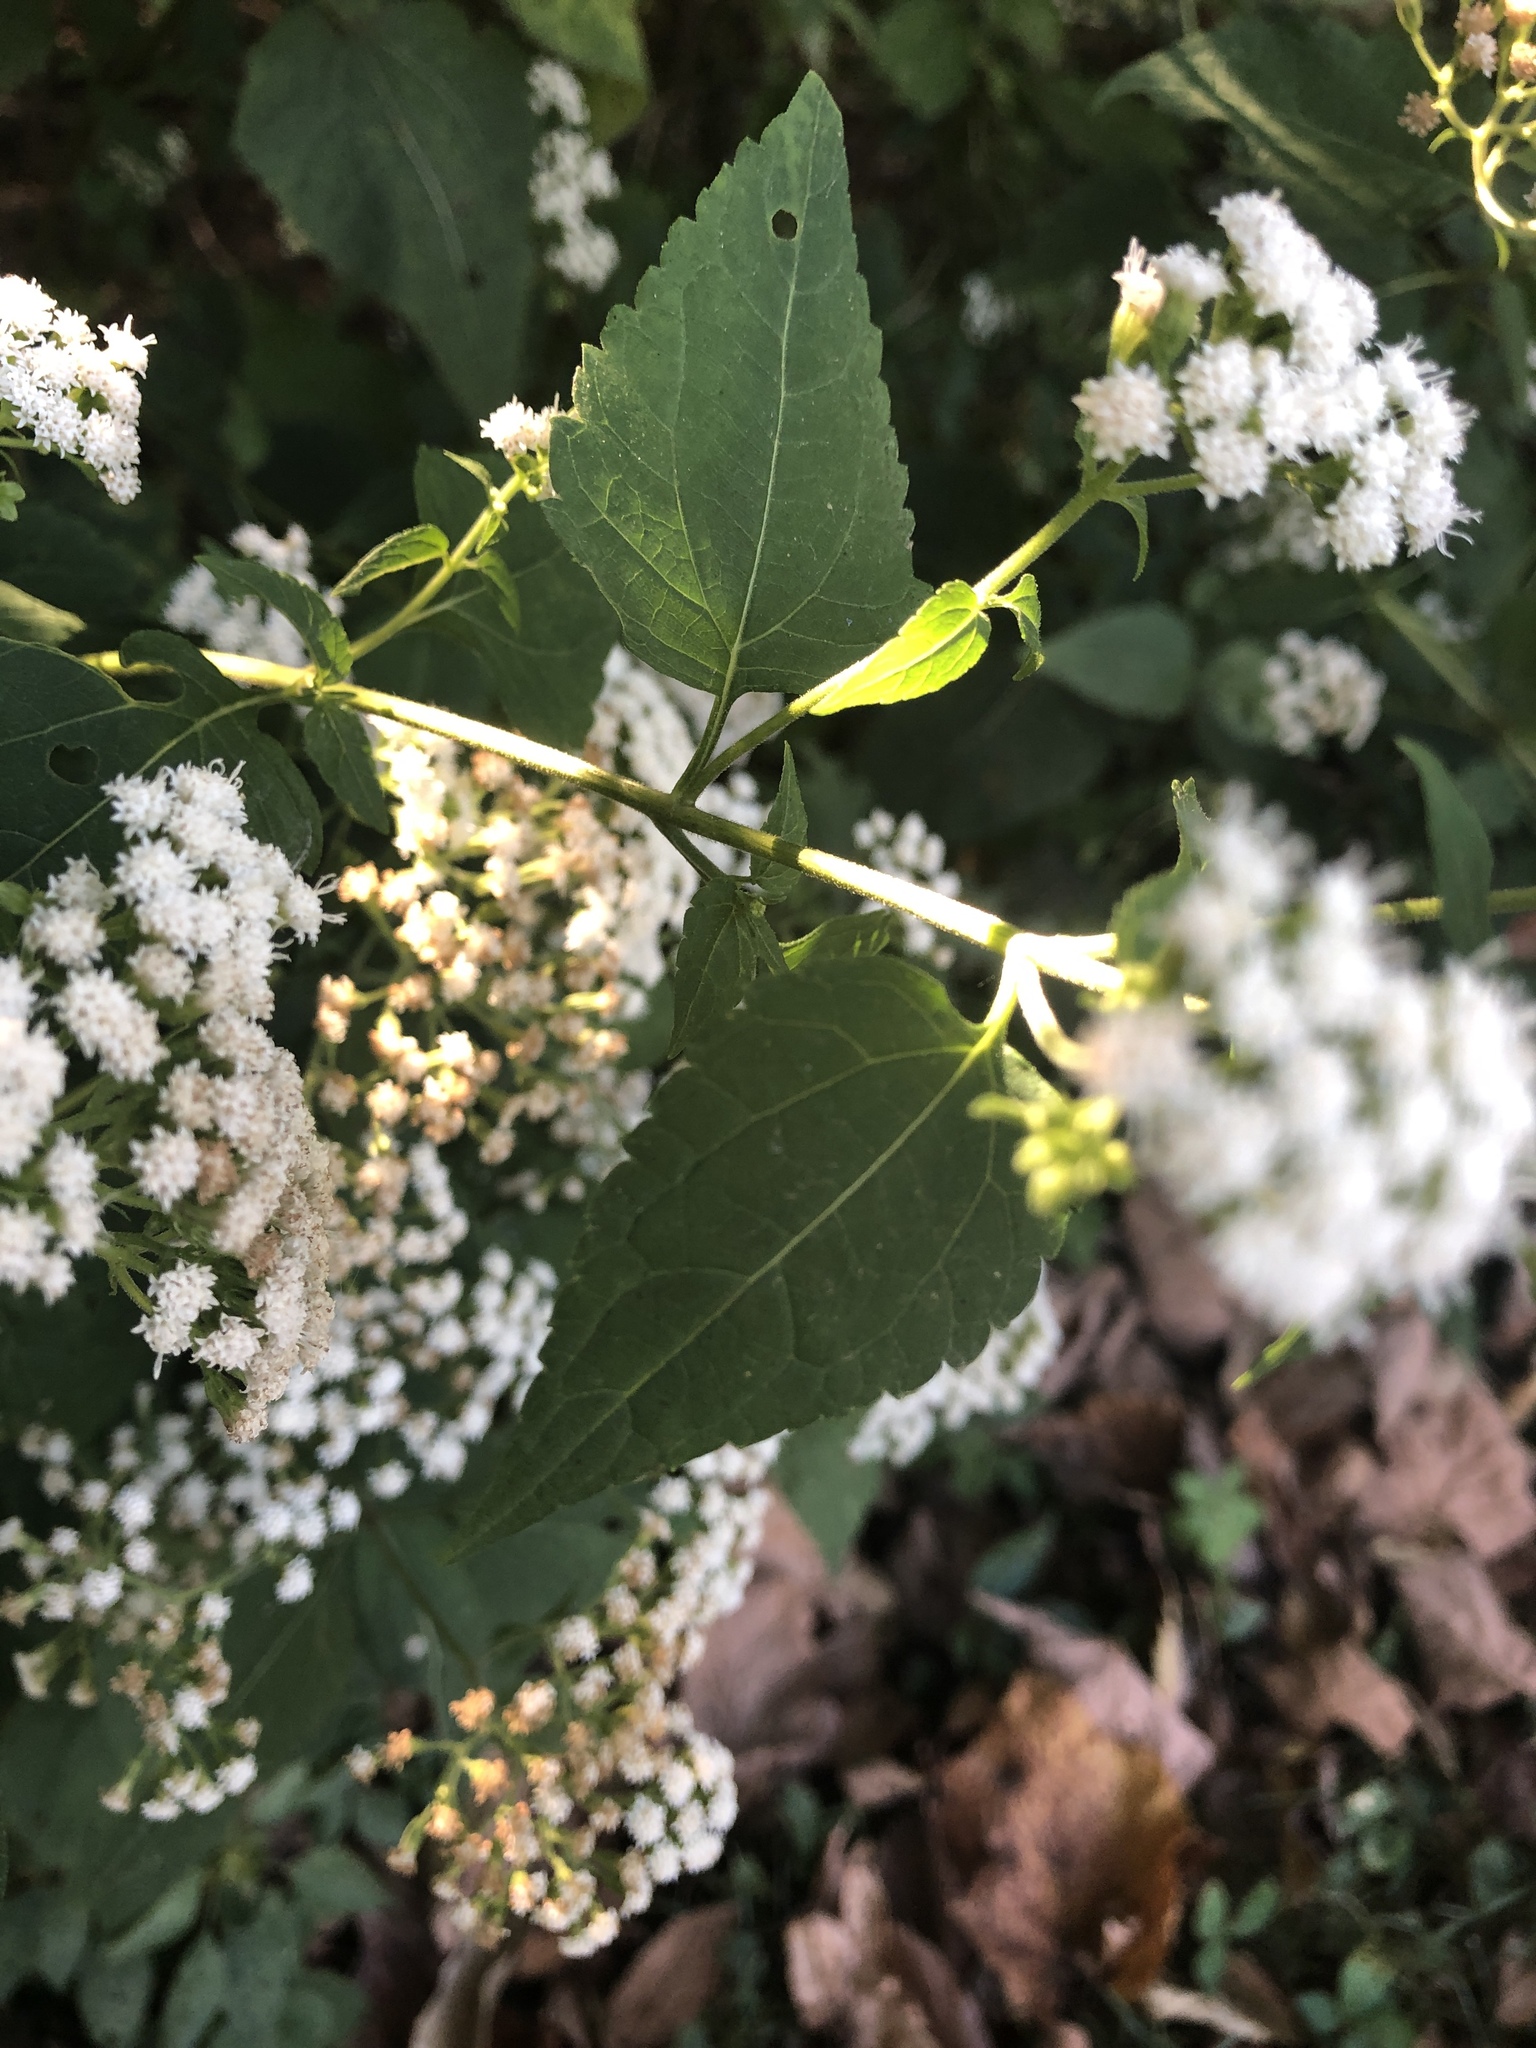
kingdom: Plantae
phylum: Tracheophyta
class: Magnoliopsida
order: Asterales
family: Asteraceae
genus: Ageratina
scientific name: Ageratina altissima
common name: White snakeroot
